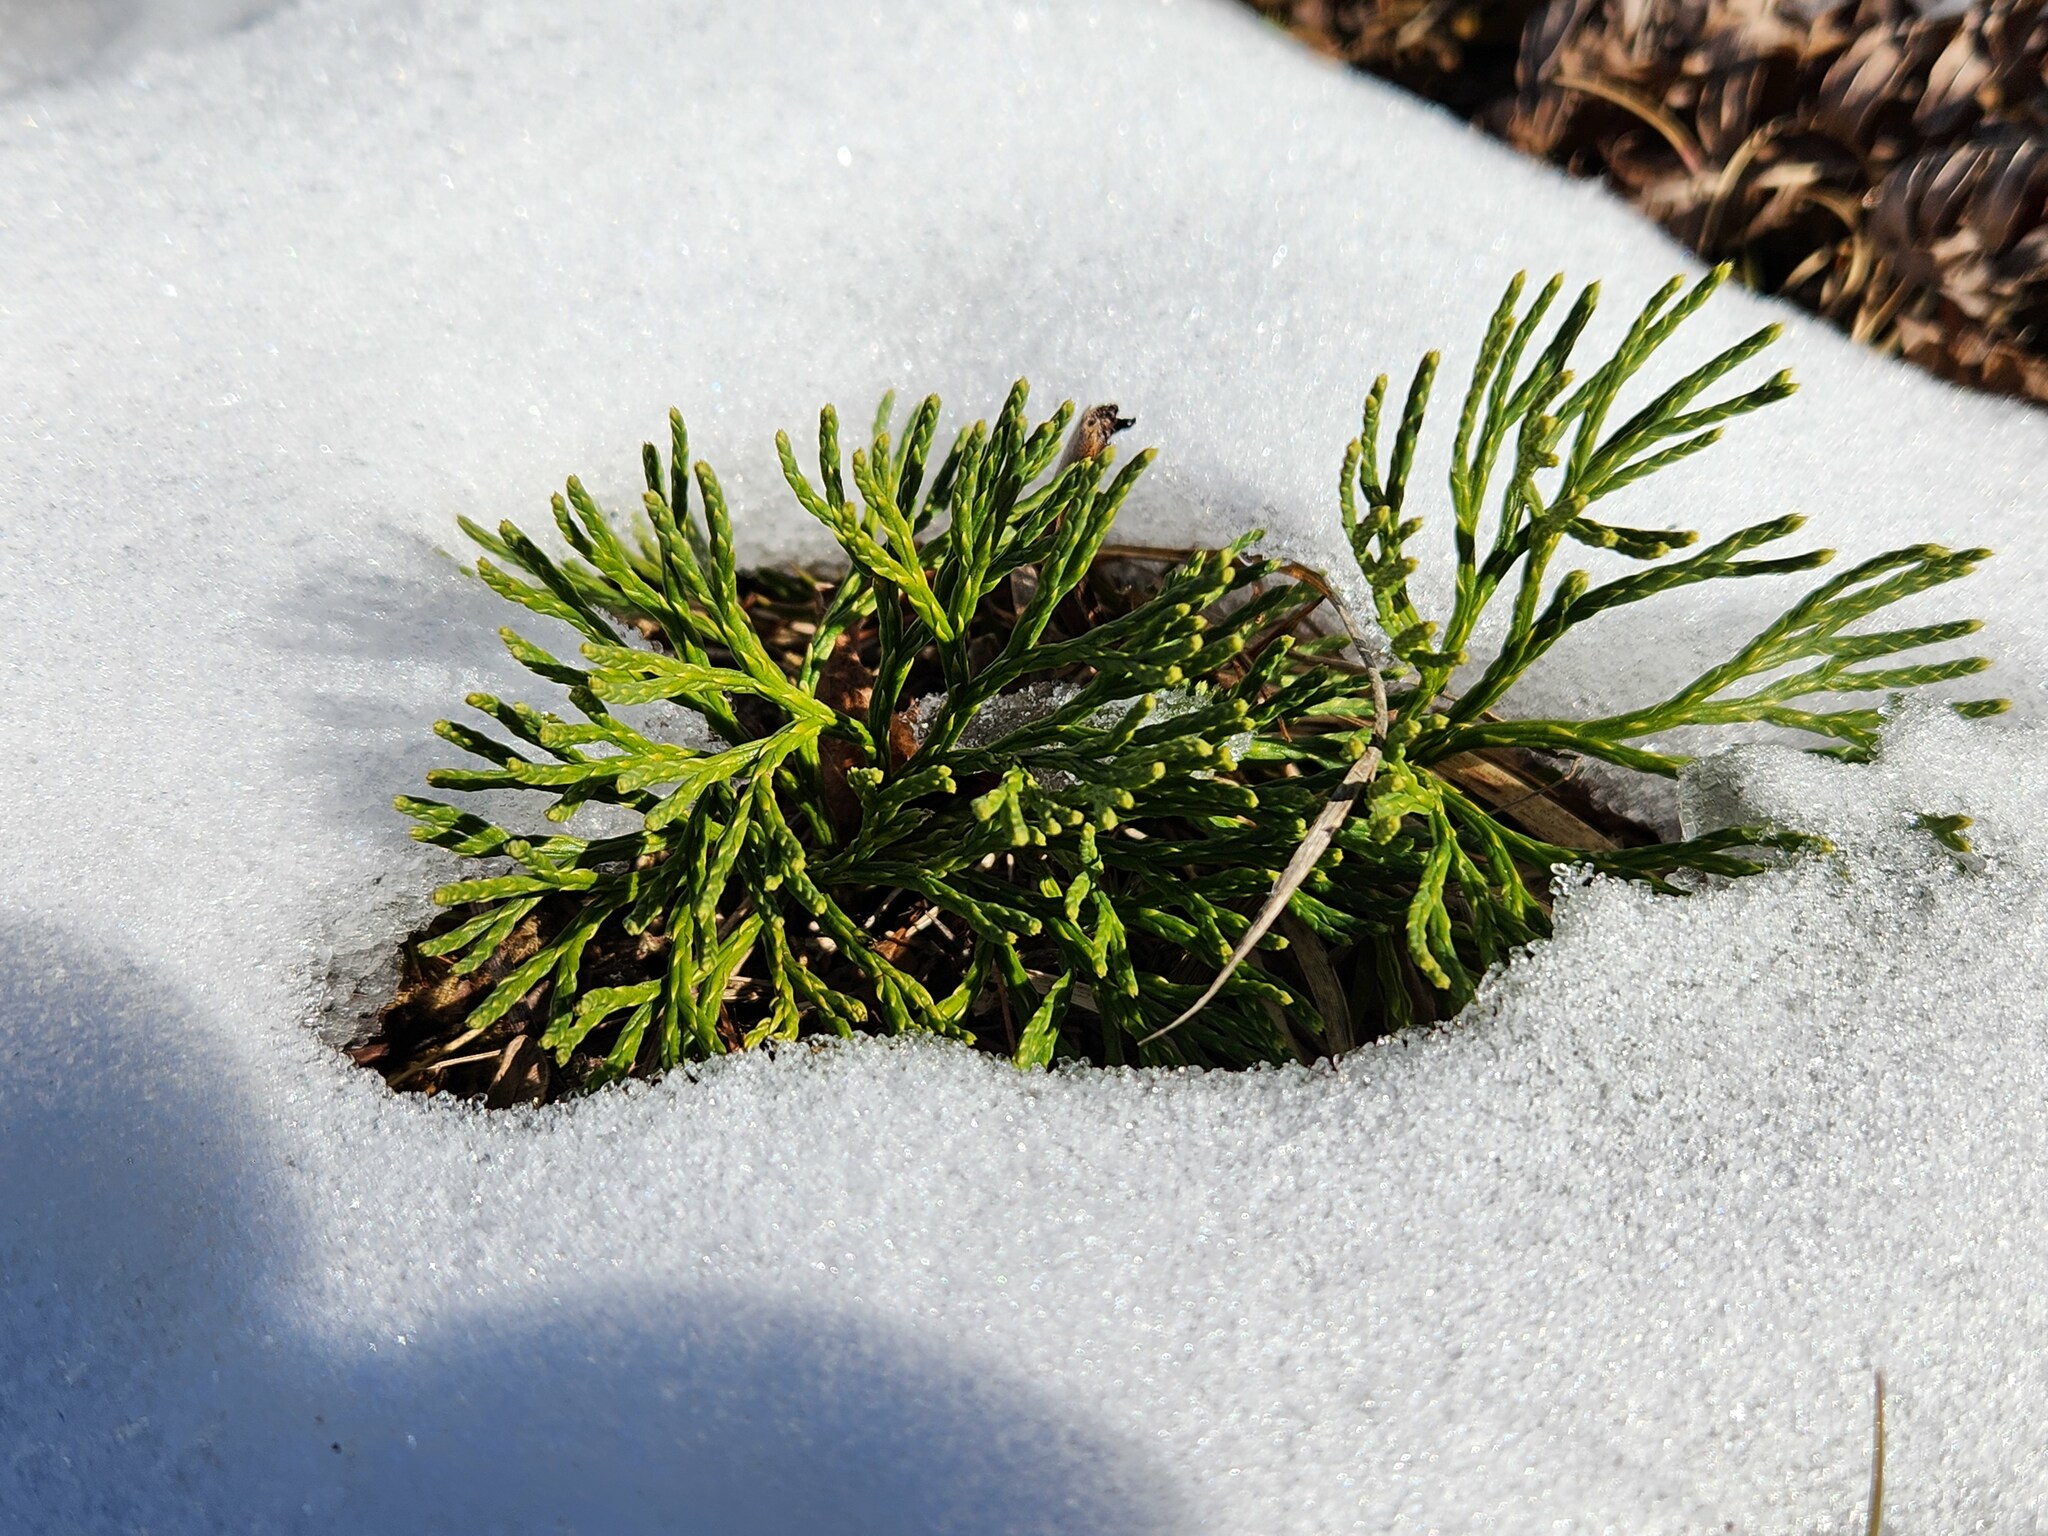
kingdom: Plantae
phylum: Tracheophyta
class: Lycopodiopsida
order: Lycopodiales
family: Lycopodiaceae
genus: Diphasiastrum
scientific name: Diphasiastrum tristachyum
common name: Blue ground-cedar
